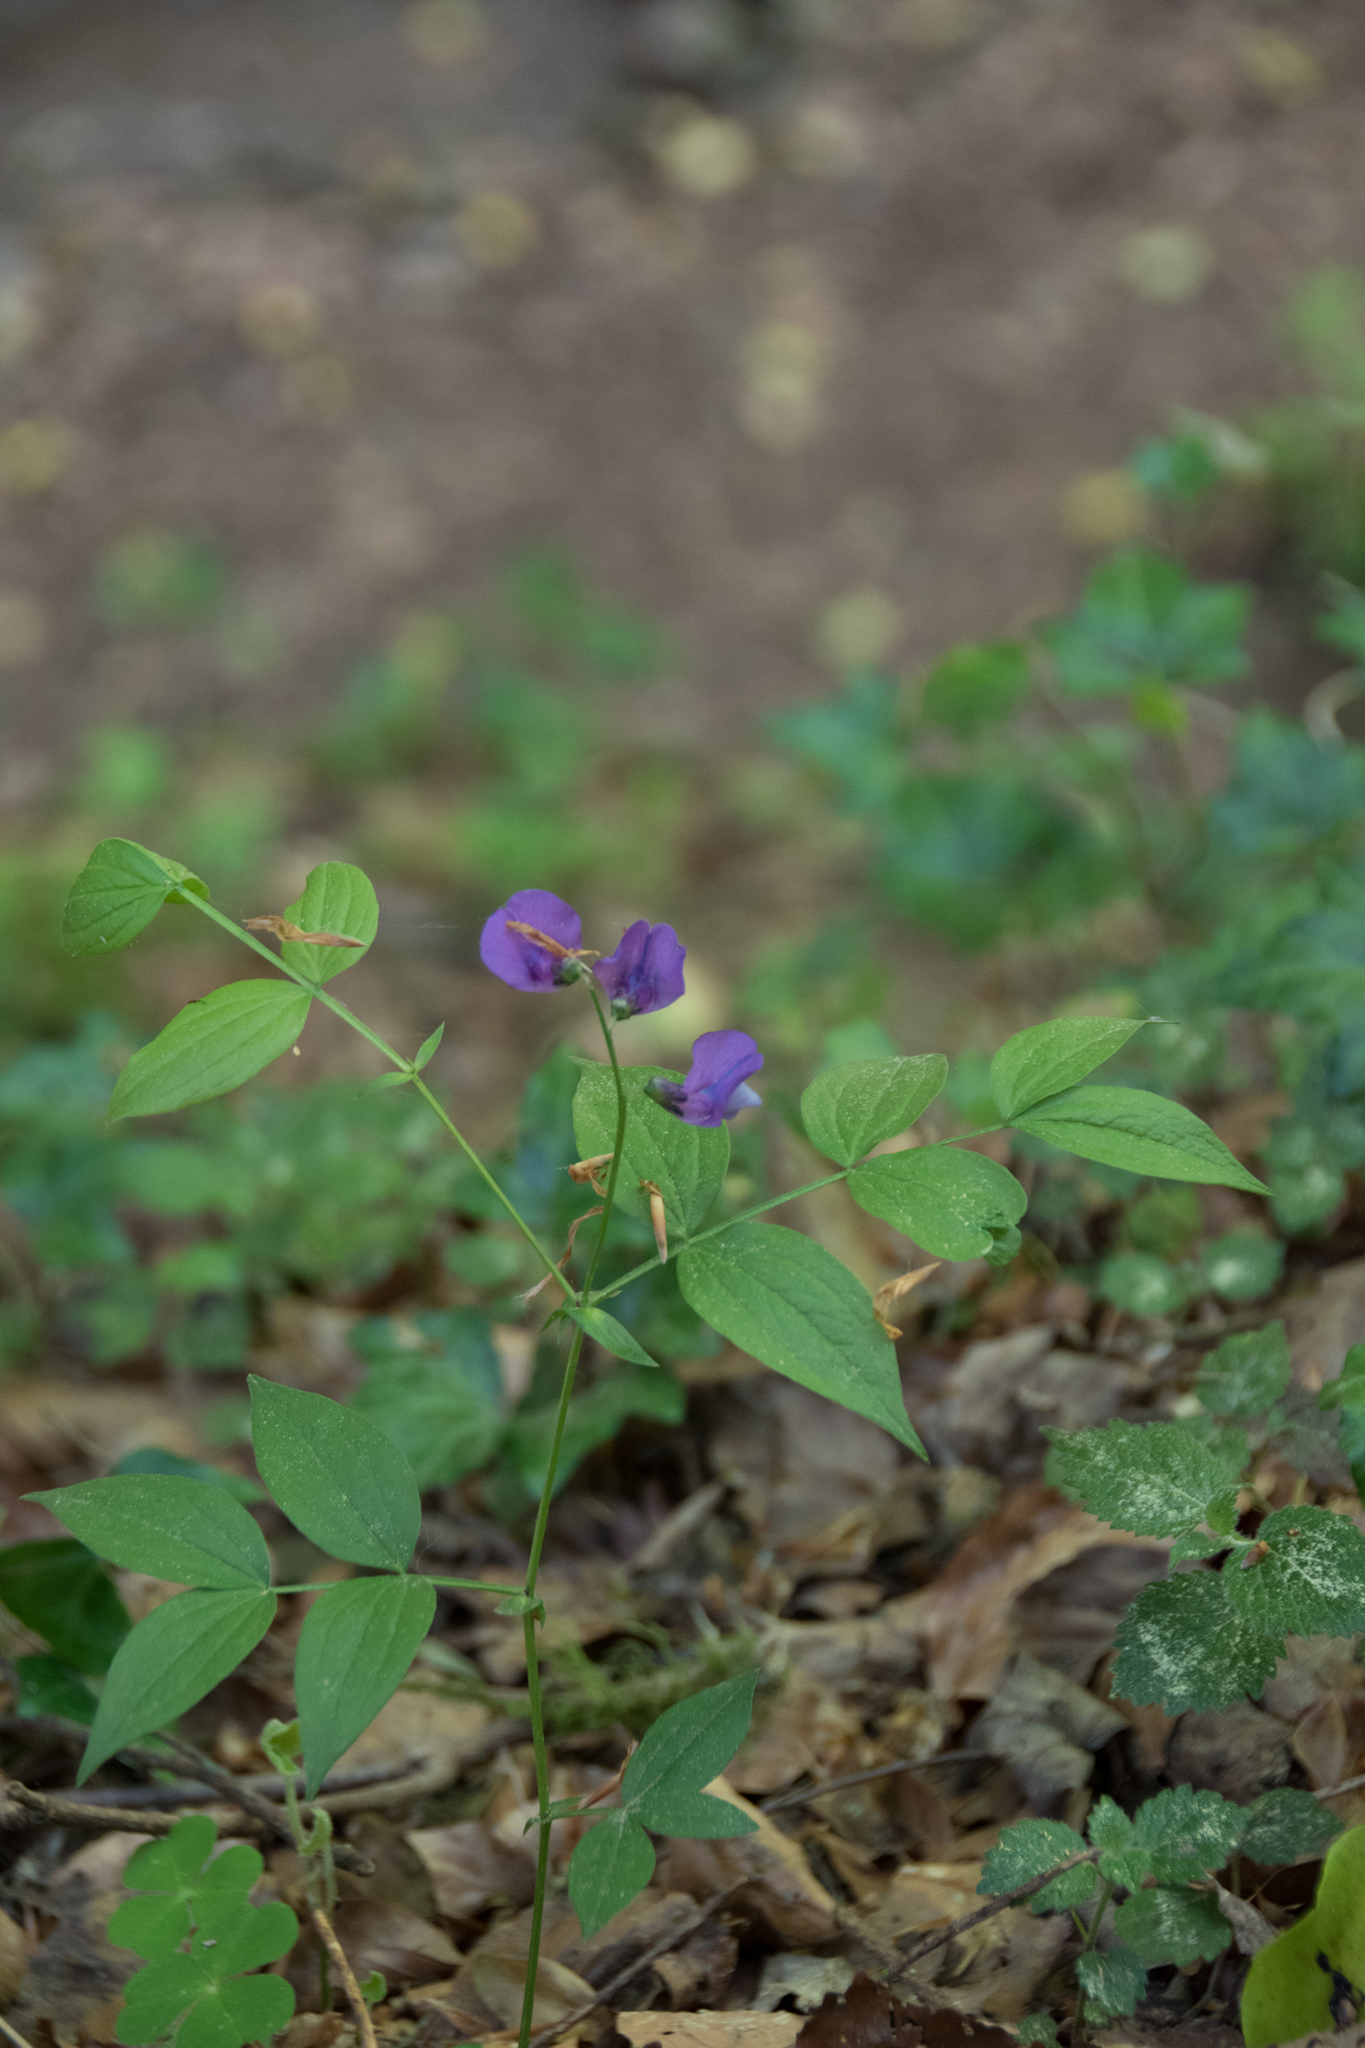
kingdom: Plantae
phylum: Tracheophyta
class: Magnoliopsida
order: Fabales
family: Fabaceae
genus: Lathyrus
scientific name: Lathyrus vernus
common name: Spring pea
